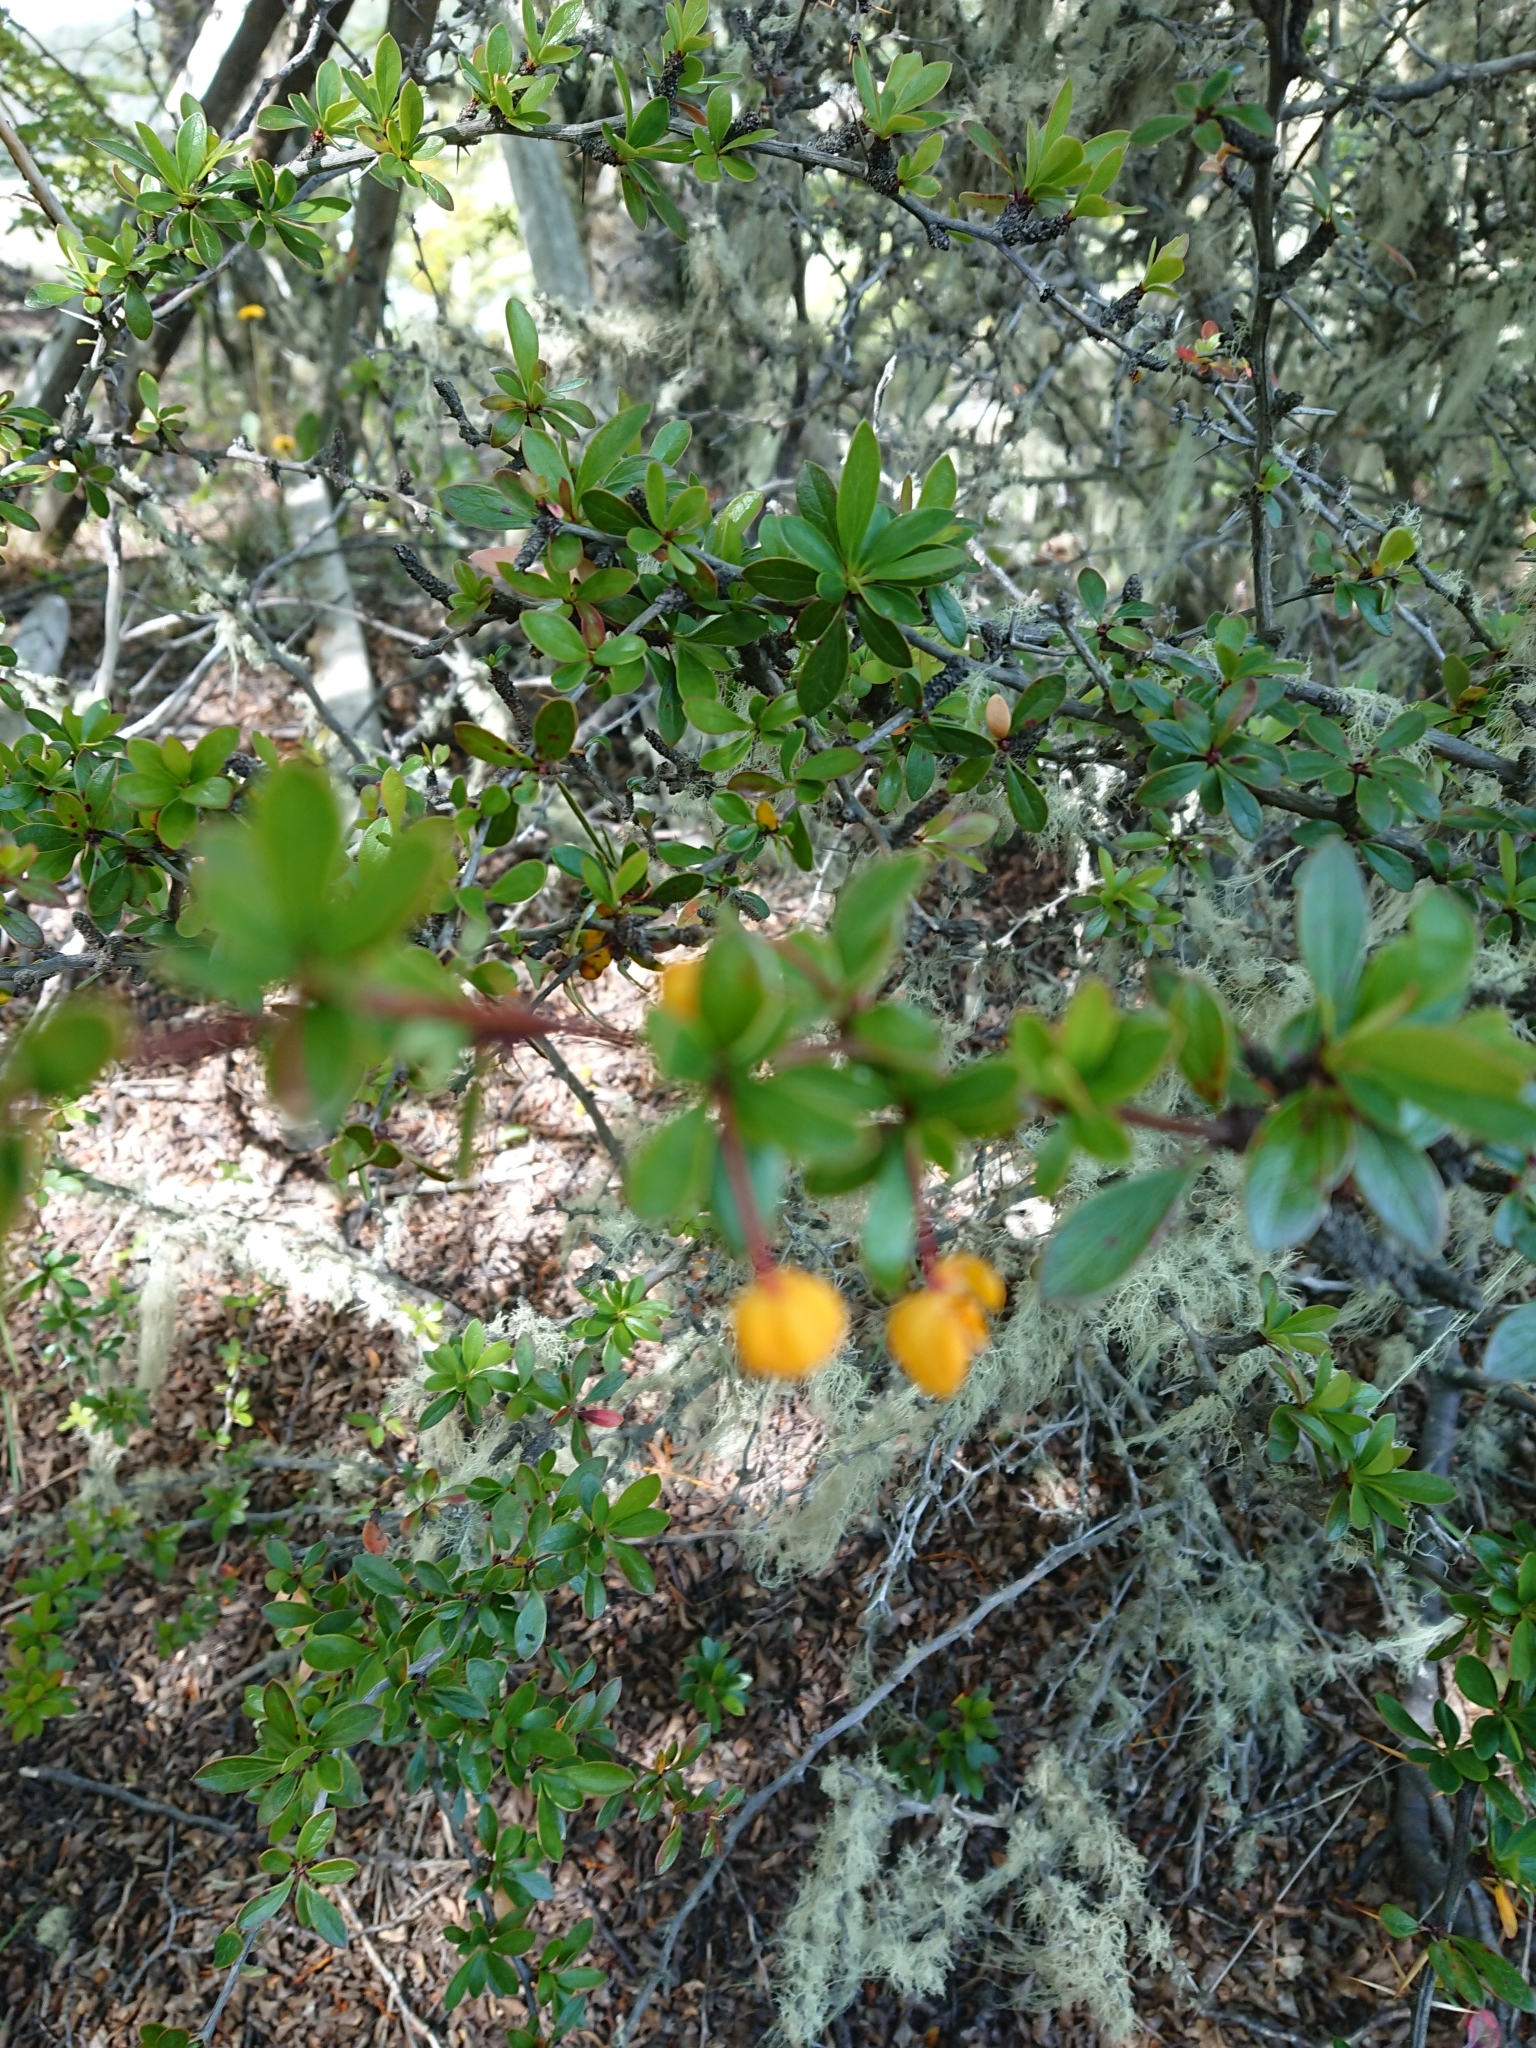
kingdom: Plantae
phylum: Tracheophyta
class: Magnoliopsida
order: Ranunculales
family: Berberidaceae
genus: Berberis
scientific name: Berberis microphylla
